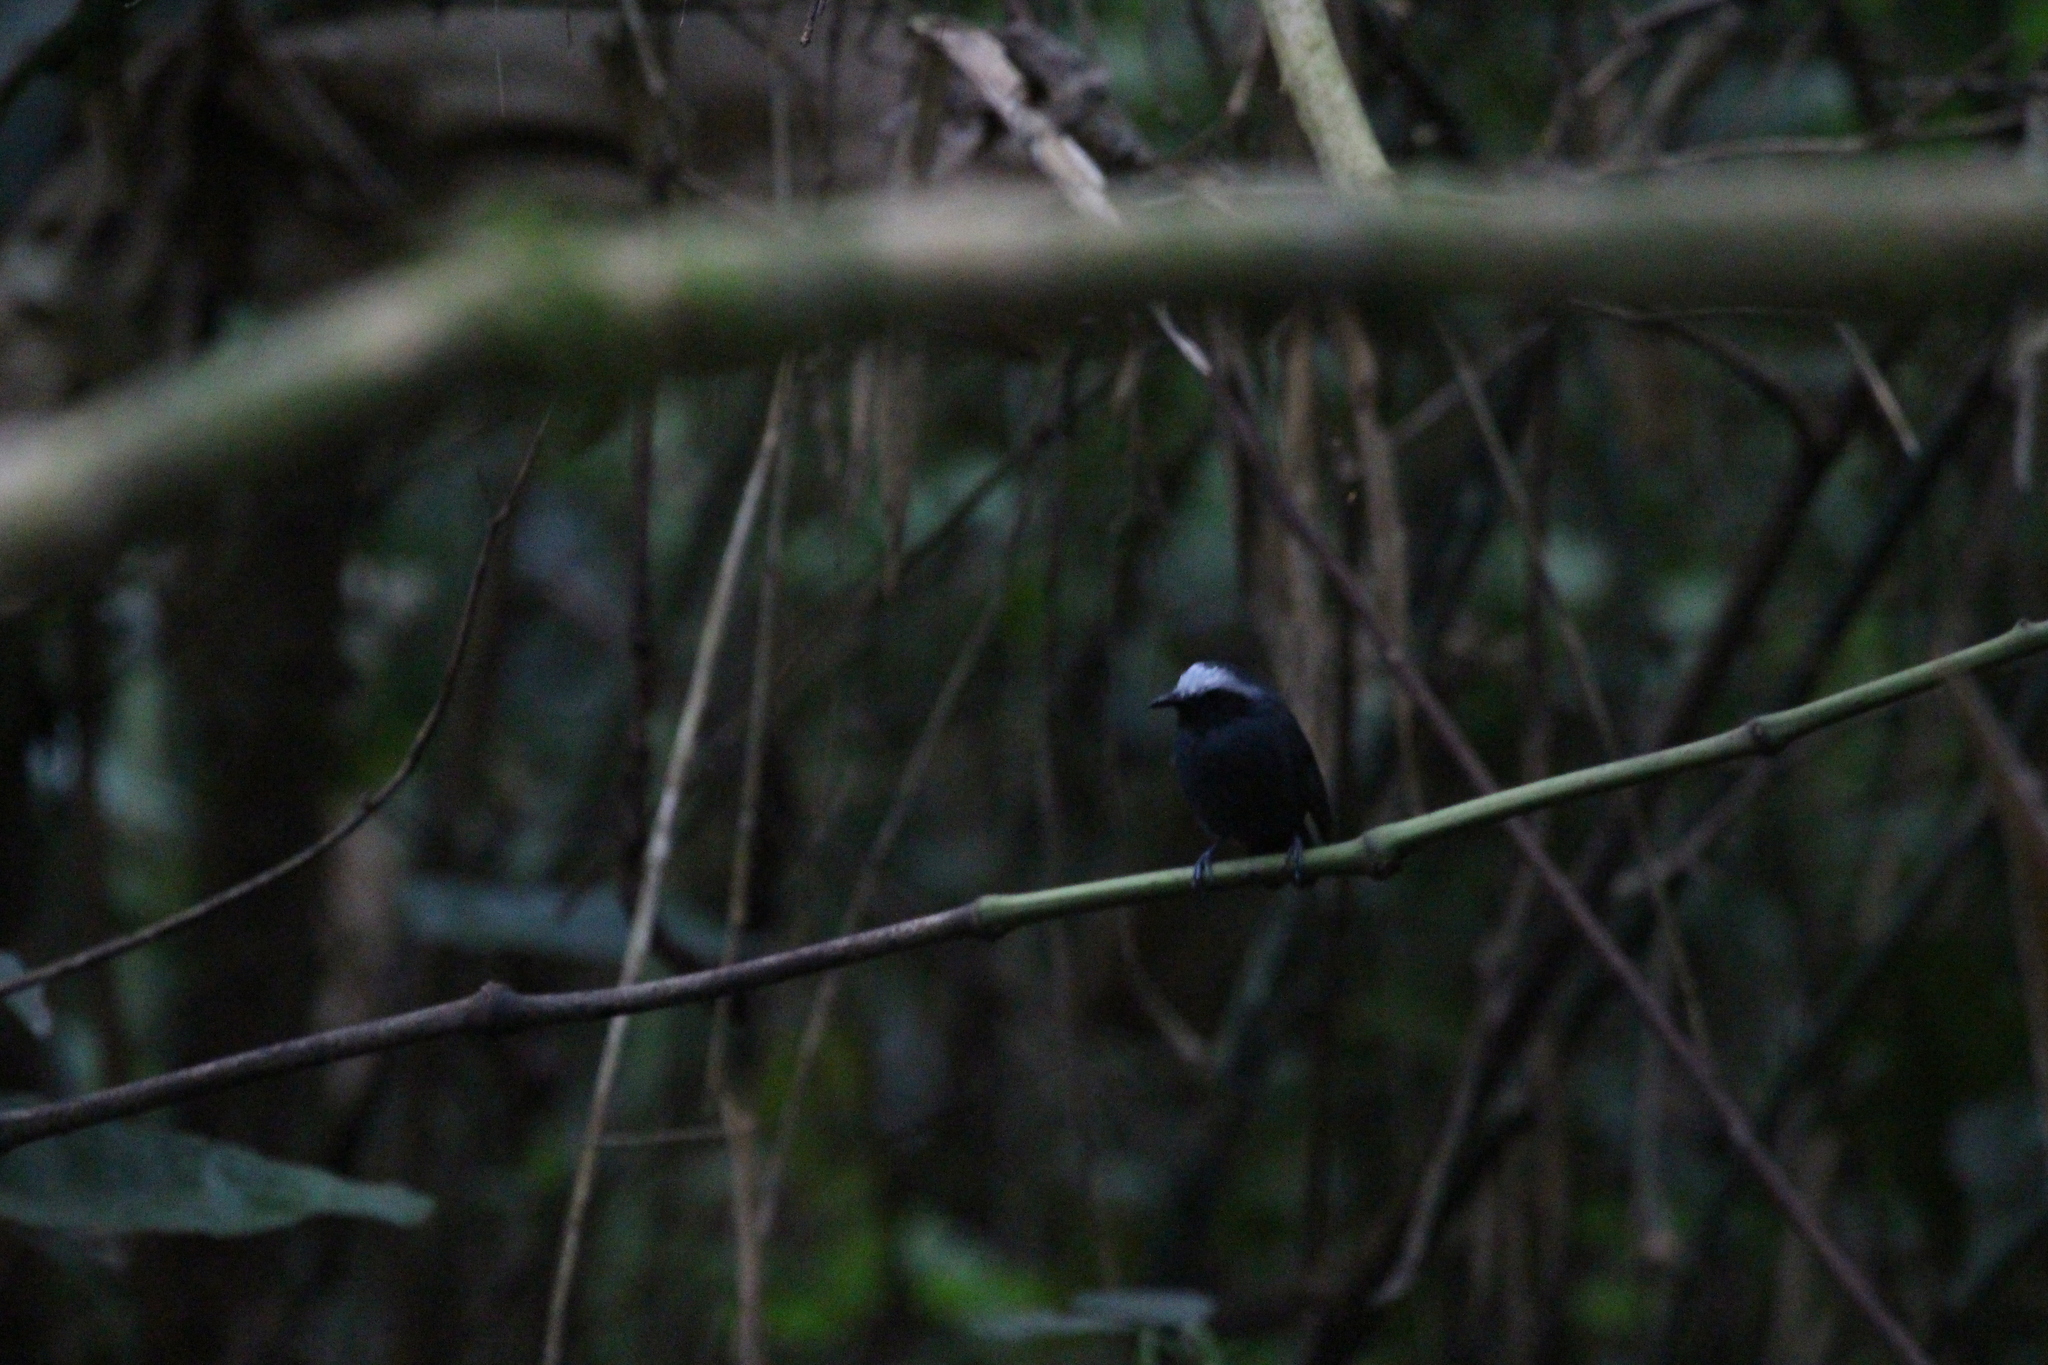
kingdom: Animalia
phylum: Chordata
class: Aves
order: Passeriformes
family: Thamnophilidae
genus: Myrmoborus
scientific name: Myrmoborus leucophrys
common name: White-browed antbird
